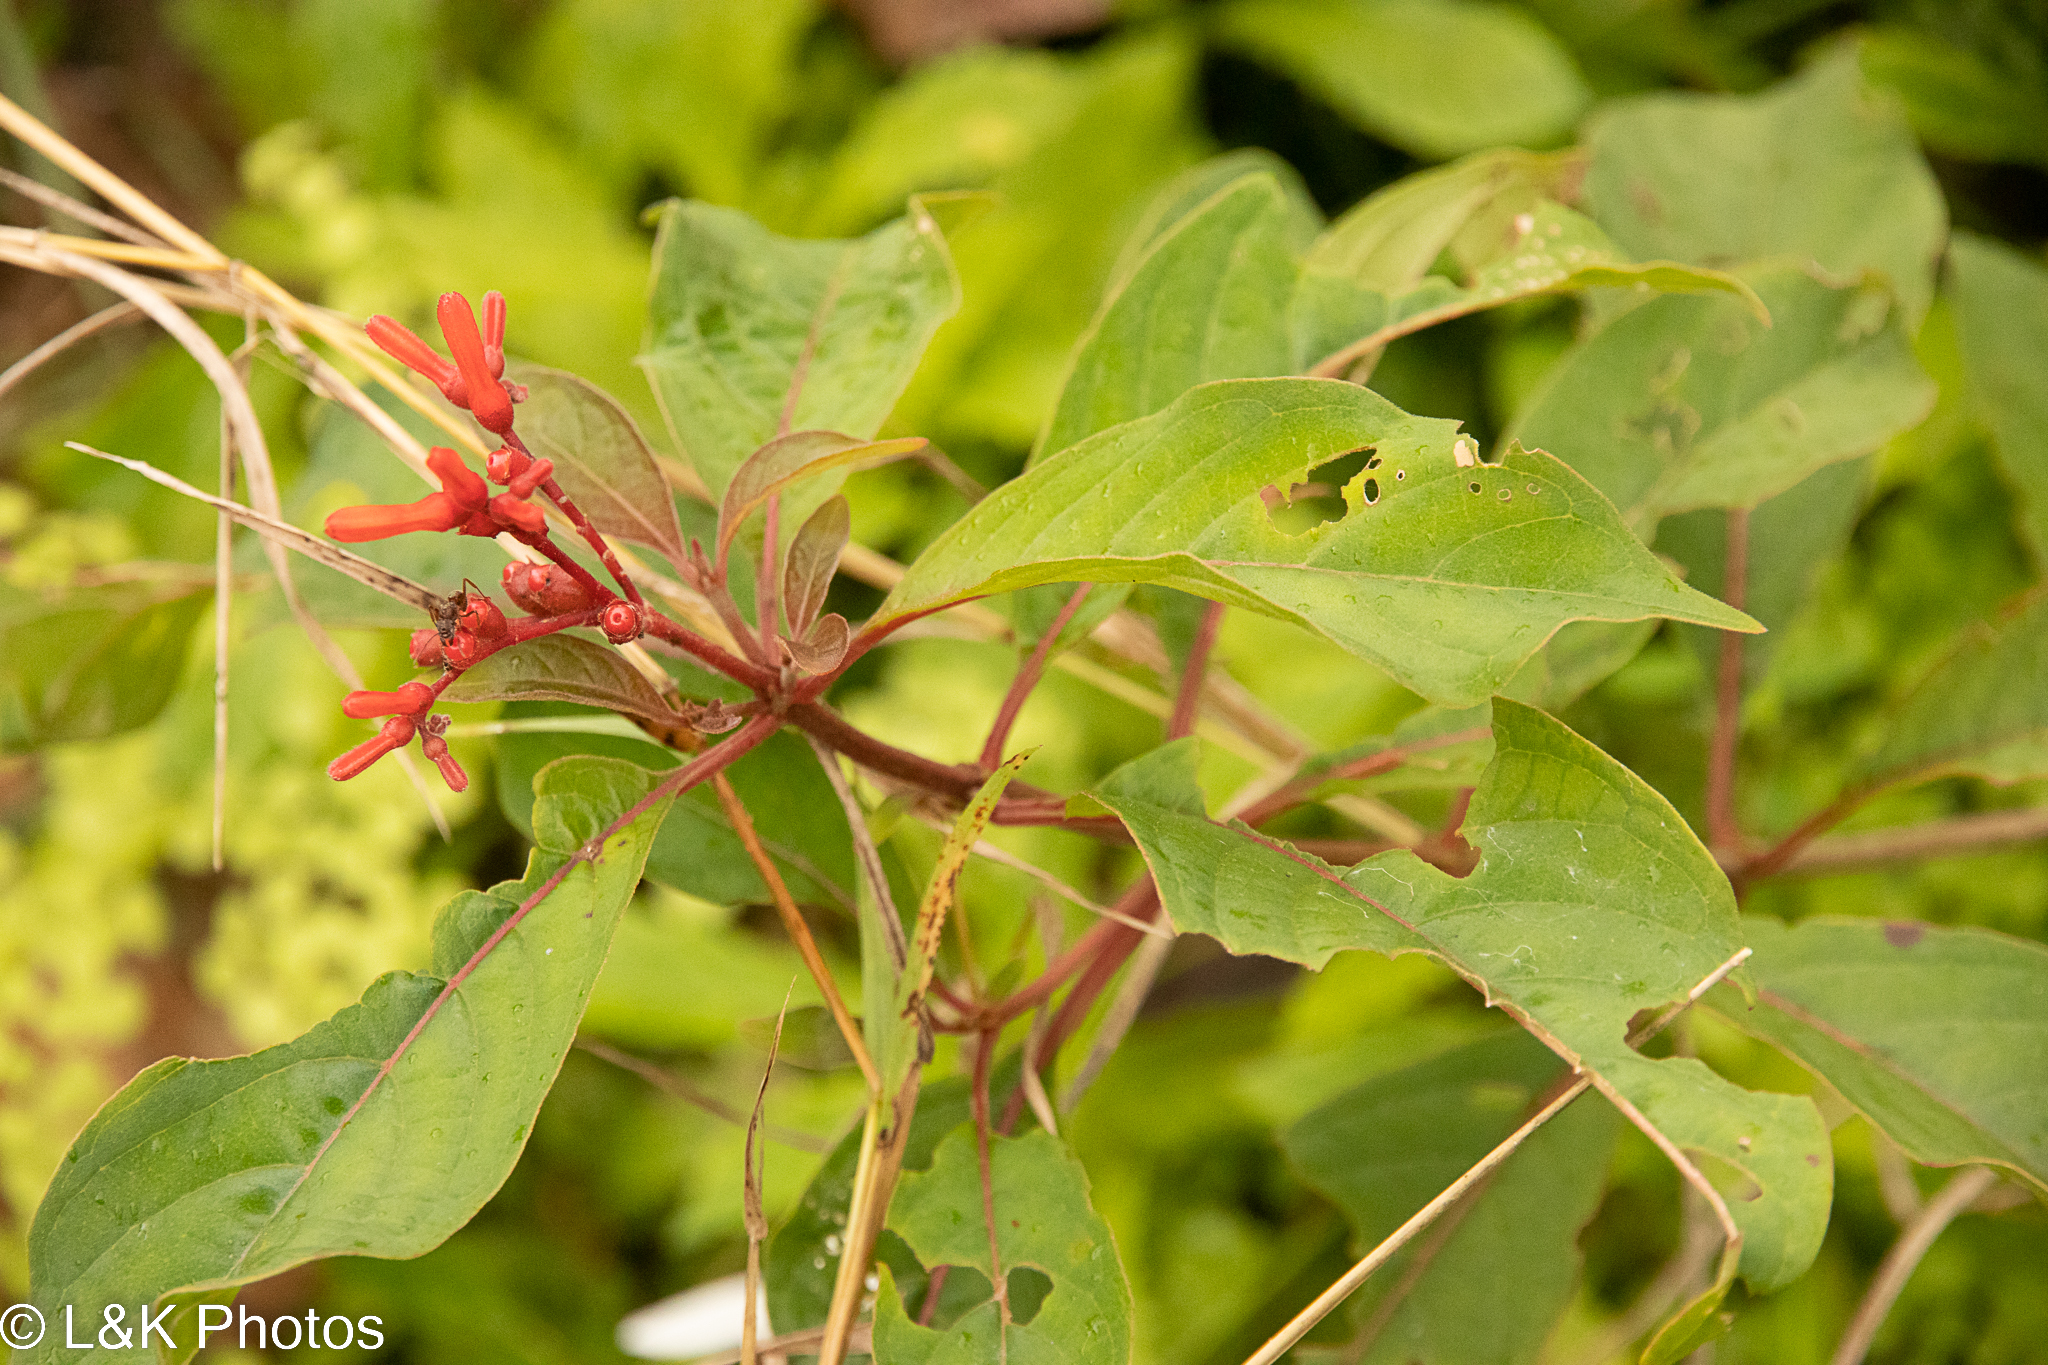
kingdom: Plantae
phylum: Tracheophyta
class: Magnoliopsida
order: Gentianales
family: Rubiaceae
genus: Hamelia
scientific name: Hamelia patens
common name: Redhead
